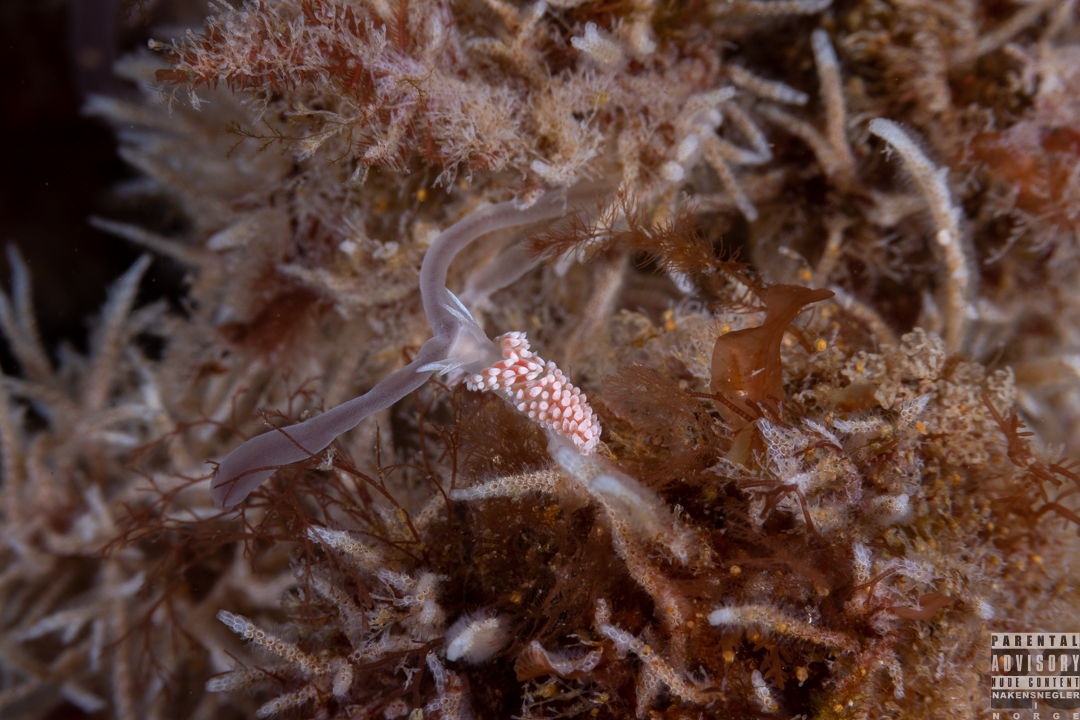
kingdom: Animalia
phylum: Mollusca
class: Gastropoda
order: Nudibranchia
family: Coryphellidae
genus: Coryphella
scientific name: Coryphella verrucosa
